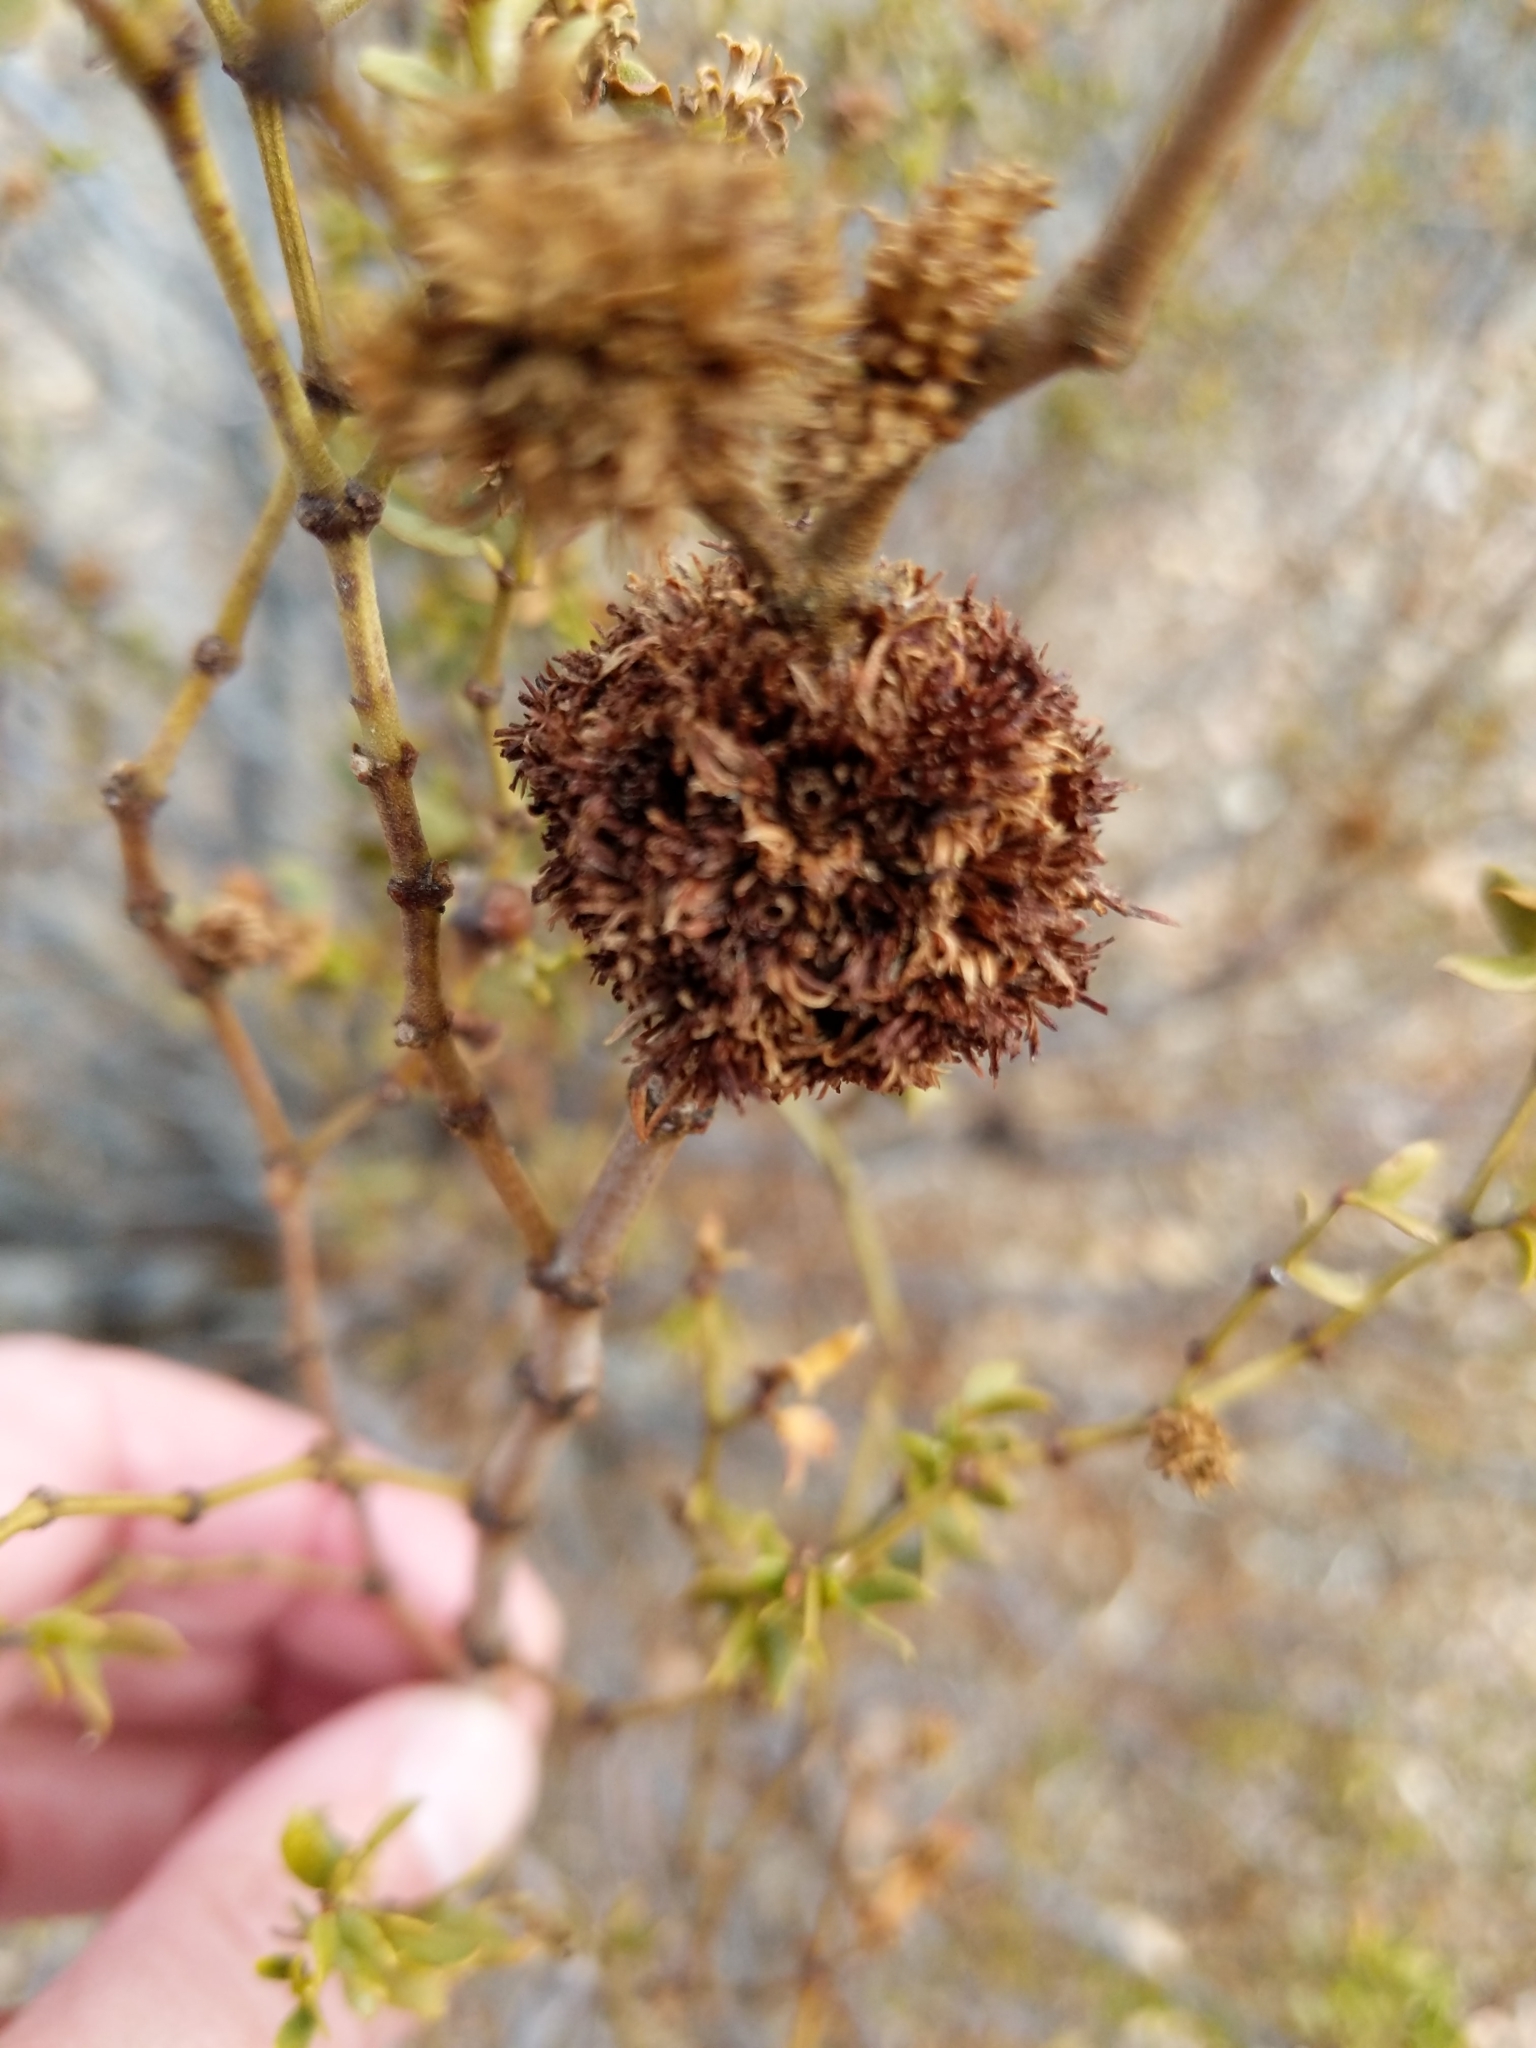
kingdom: Animalia
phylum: Arthropoda
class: Insecta
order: Diptera
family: Cecidomyiidae
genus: Asphondylia
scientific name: Asphondylia auripila
